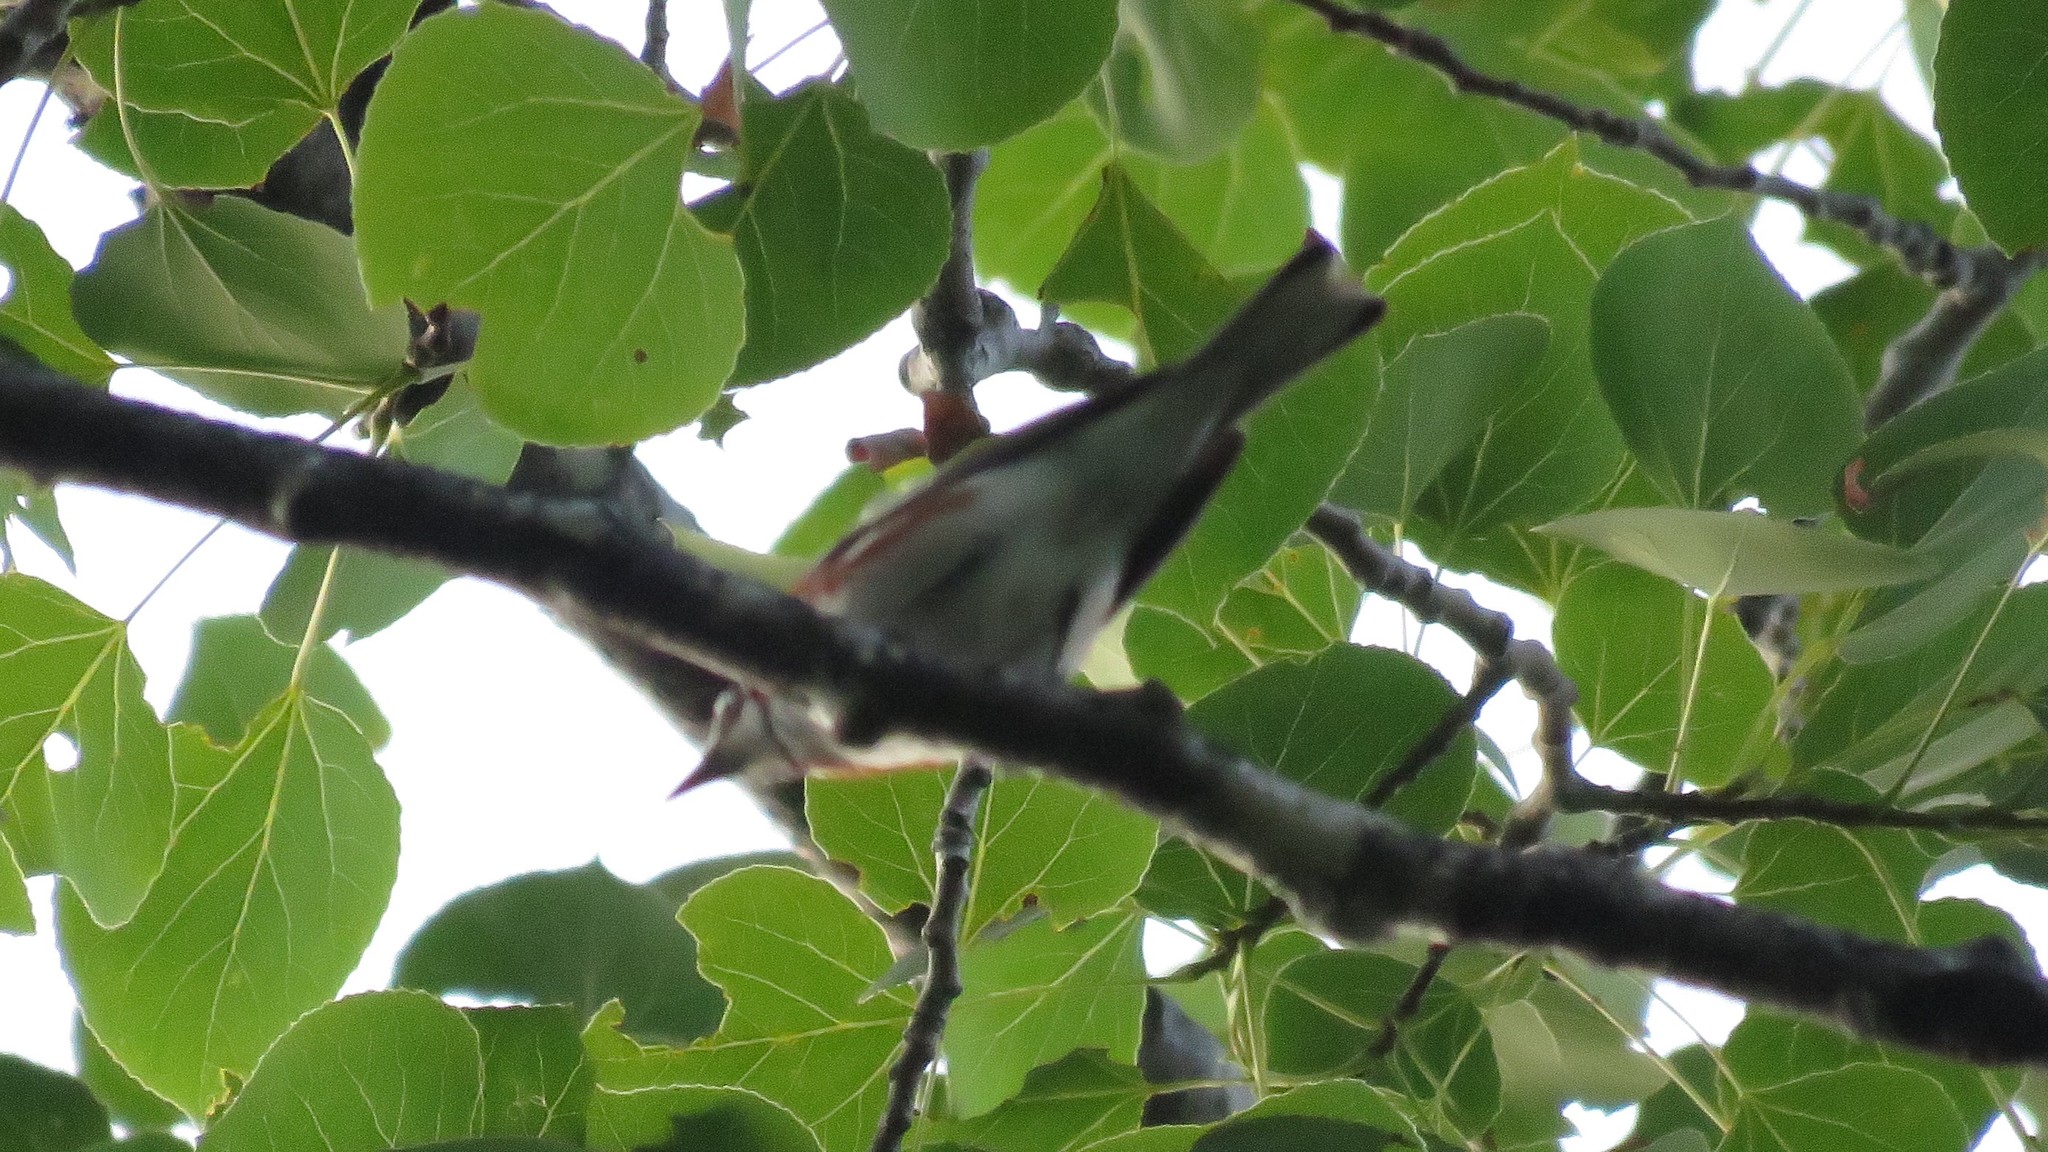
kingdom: Animalia
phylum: Chordata
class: Aves
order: Passeriformes
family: Parulidae
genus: Setophaga
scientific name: Setophaga pensylvanica
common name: Chestnut-sided warbler
